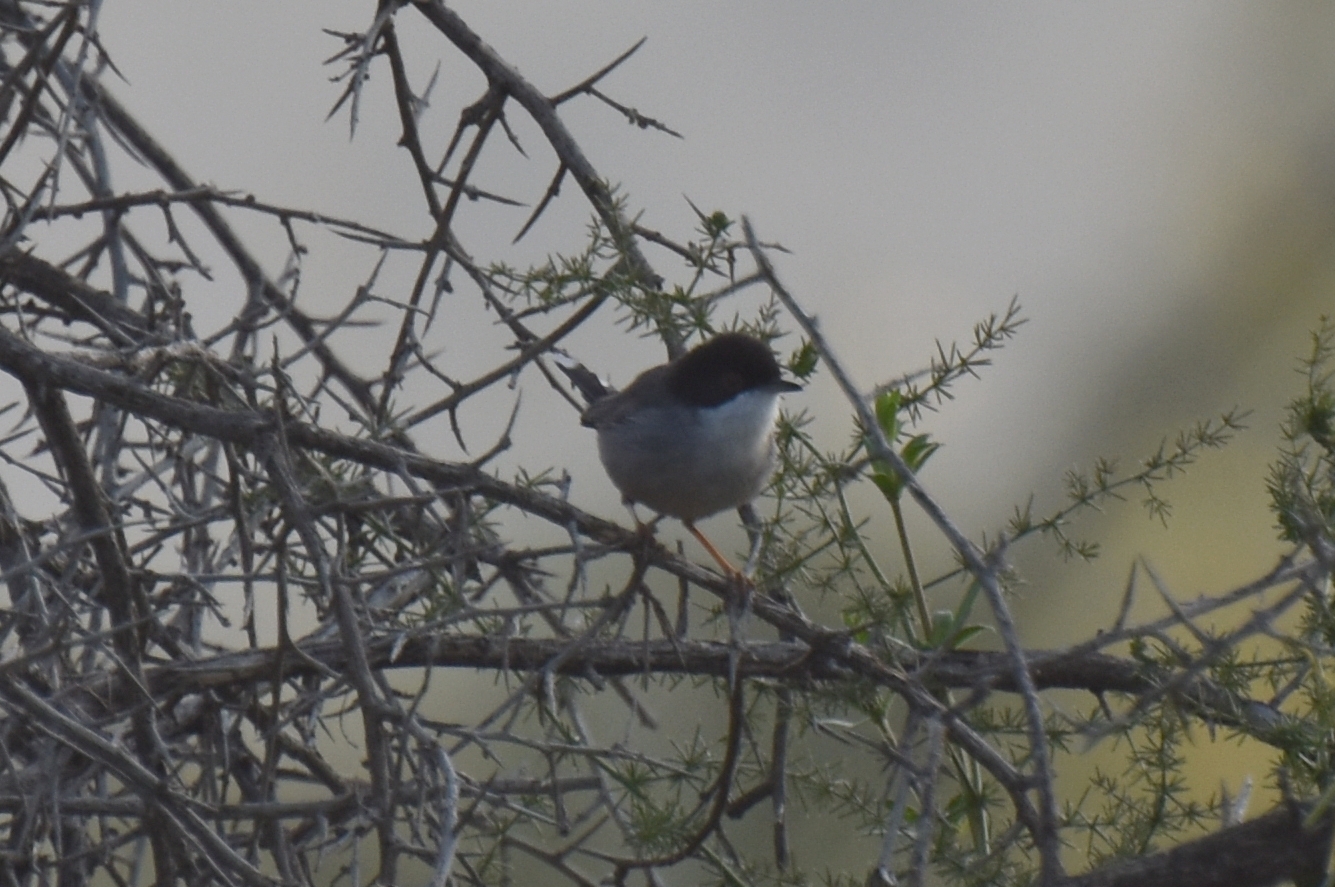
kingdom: Animalia
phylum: Chordata
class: Aves
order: Passeriformes
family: Sylviidae
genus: Curruca
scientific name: Curruca melanocephala
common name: Sardinian warbler
